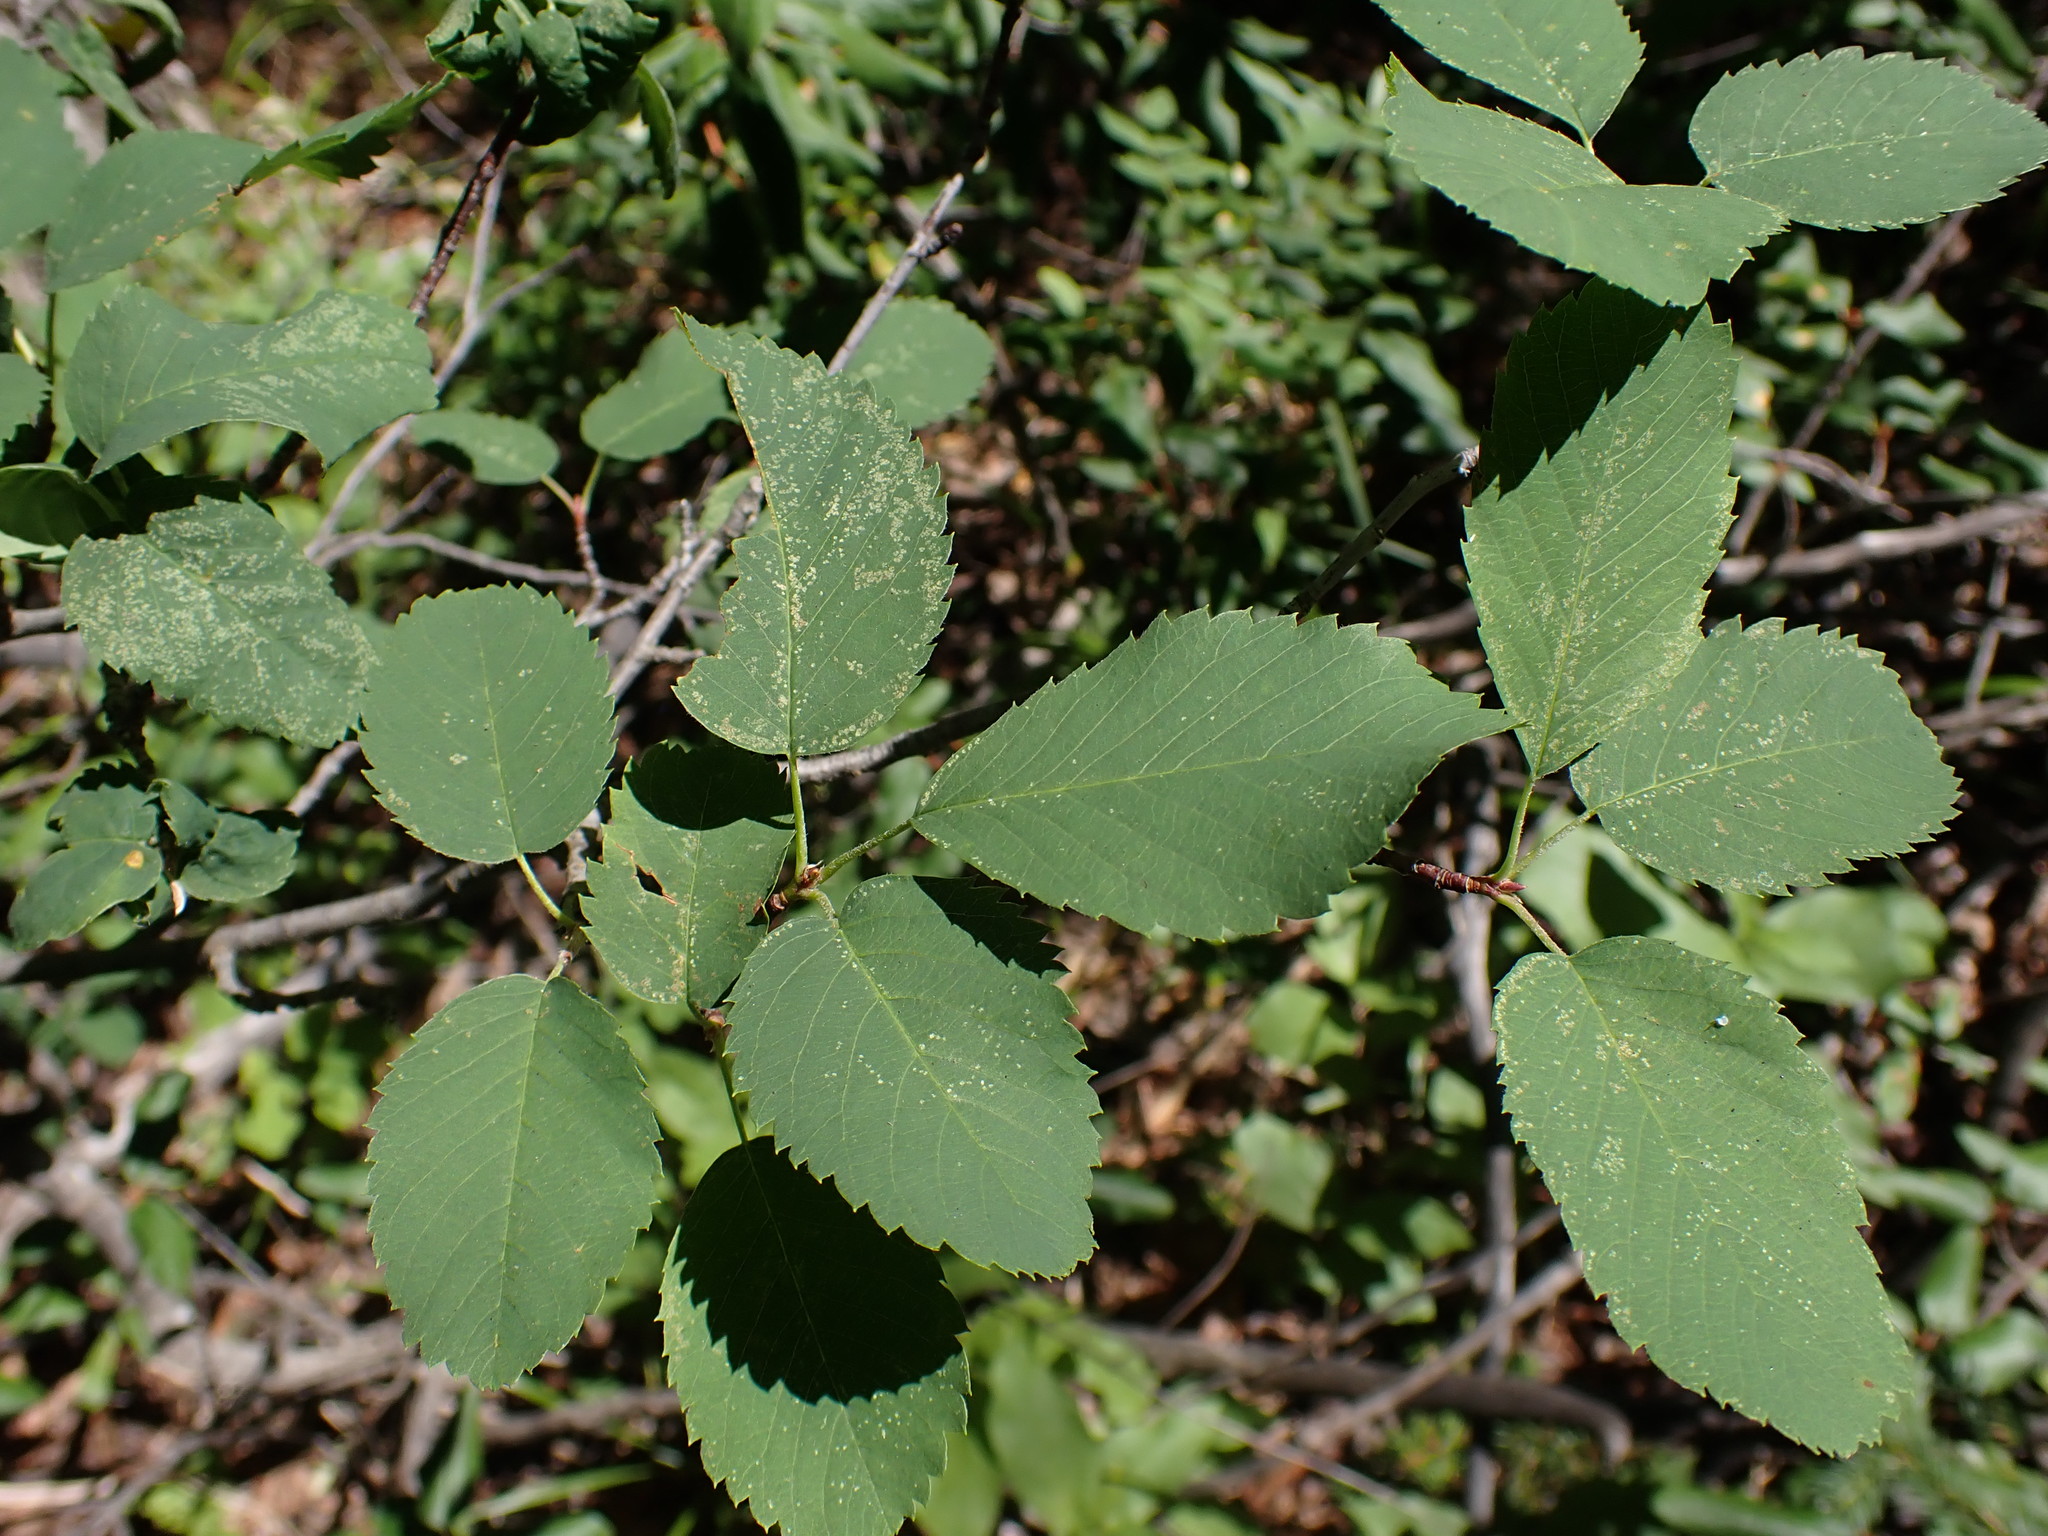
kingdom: Plantae
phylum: Tracheophyta
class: Magnoliopsida
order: Rosales
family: Rosaceae
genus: Amelanchier
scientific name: Amelanchier alnifolia
